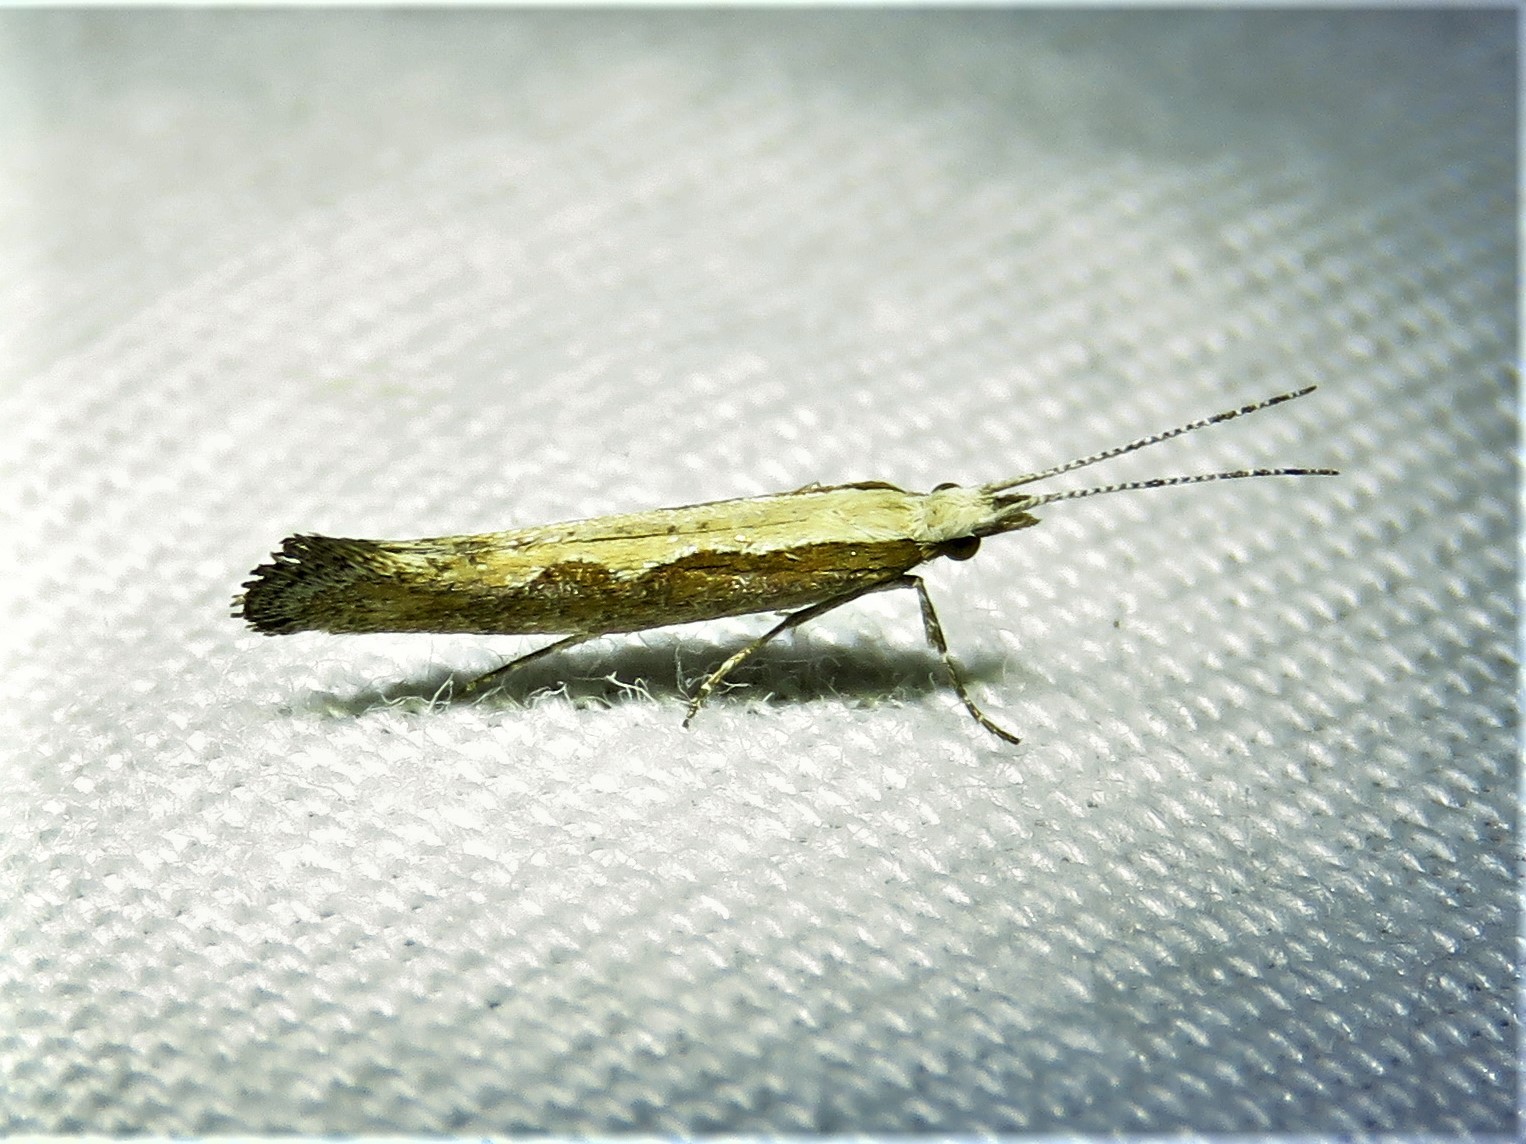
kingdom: Animalia
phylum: Arthropoda
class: Insecta
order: Lepidoptera
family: Plutellidae
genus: Plutella
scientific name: Plutella xylostella
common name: Diamond-back moth
